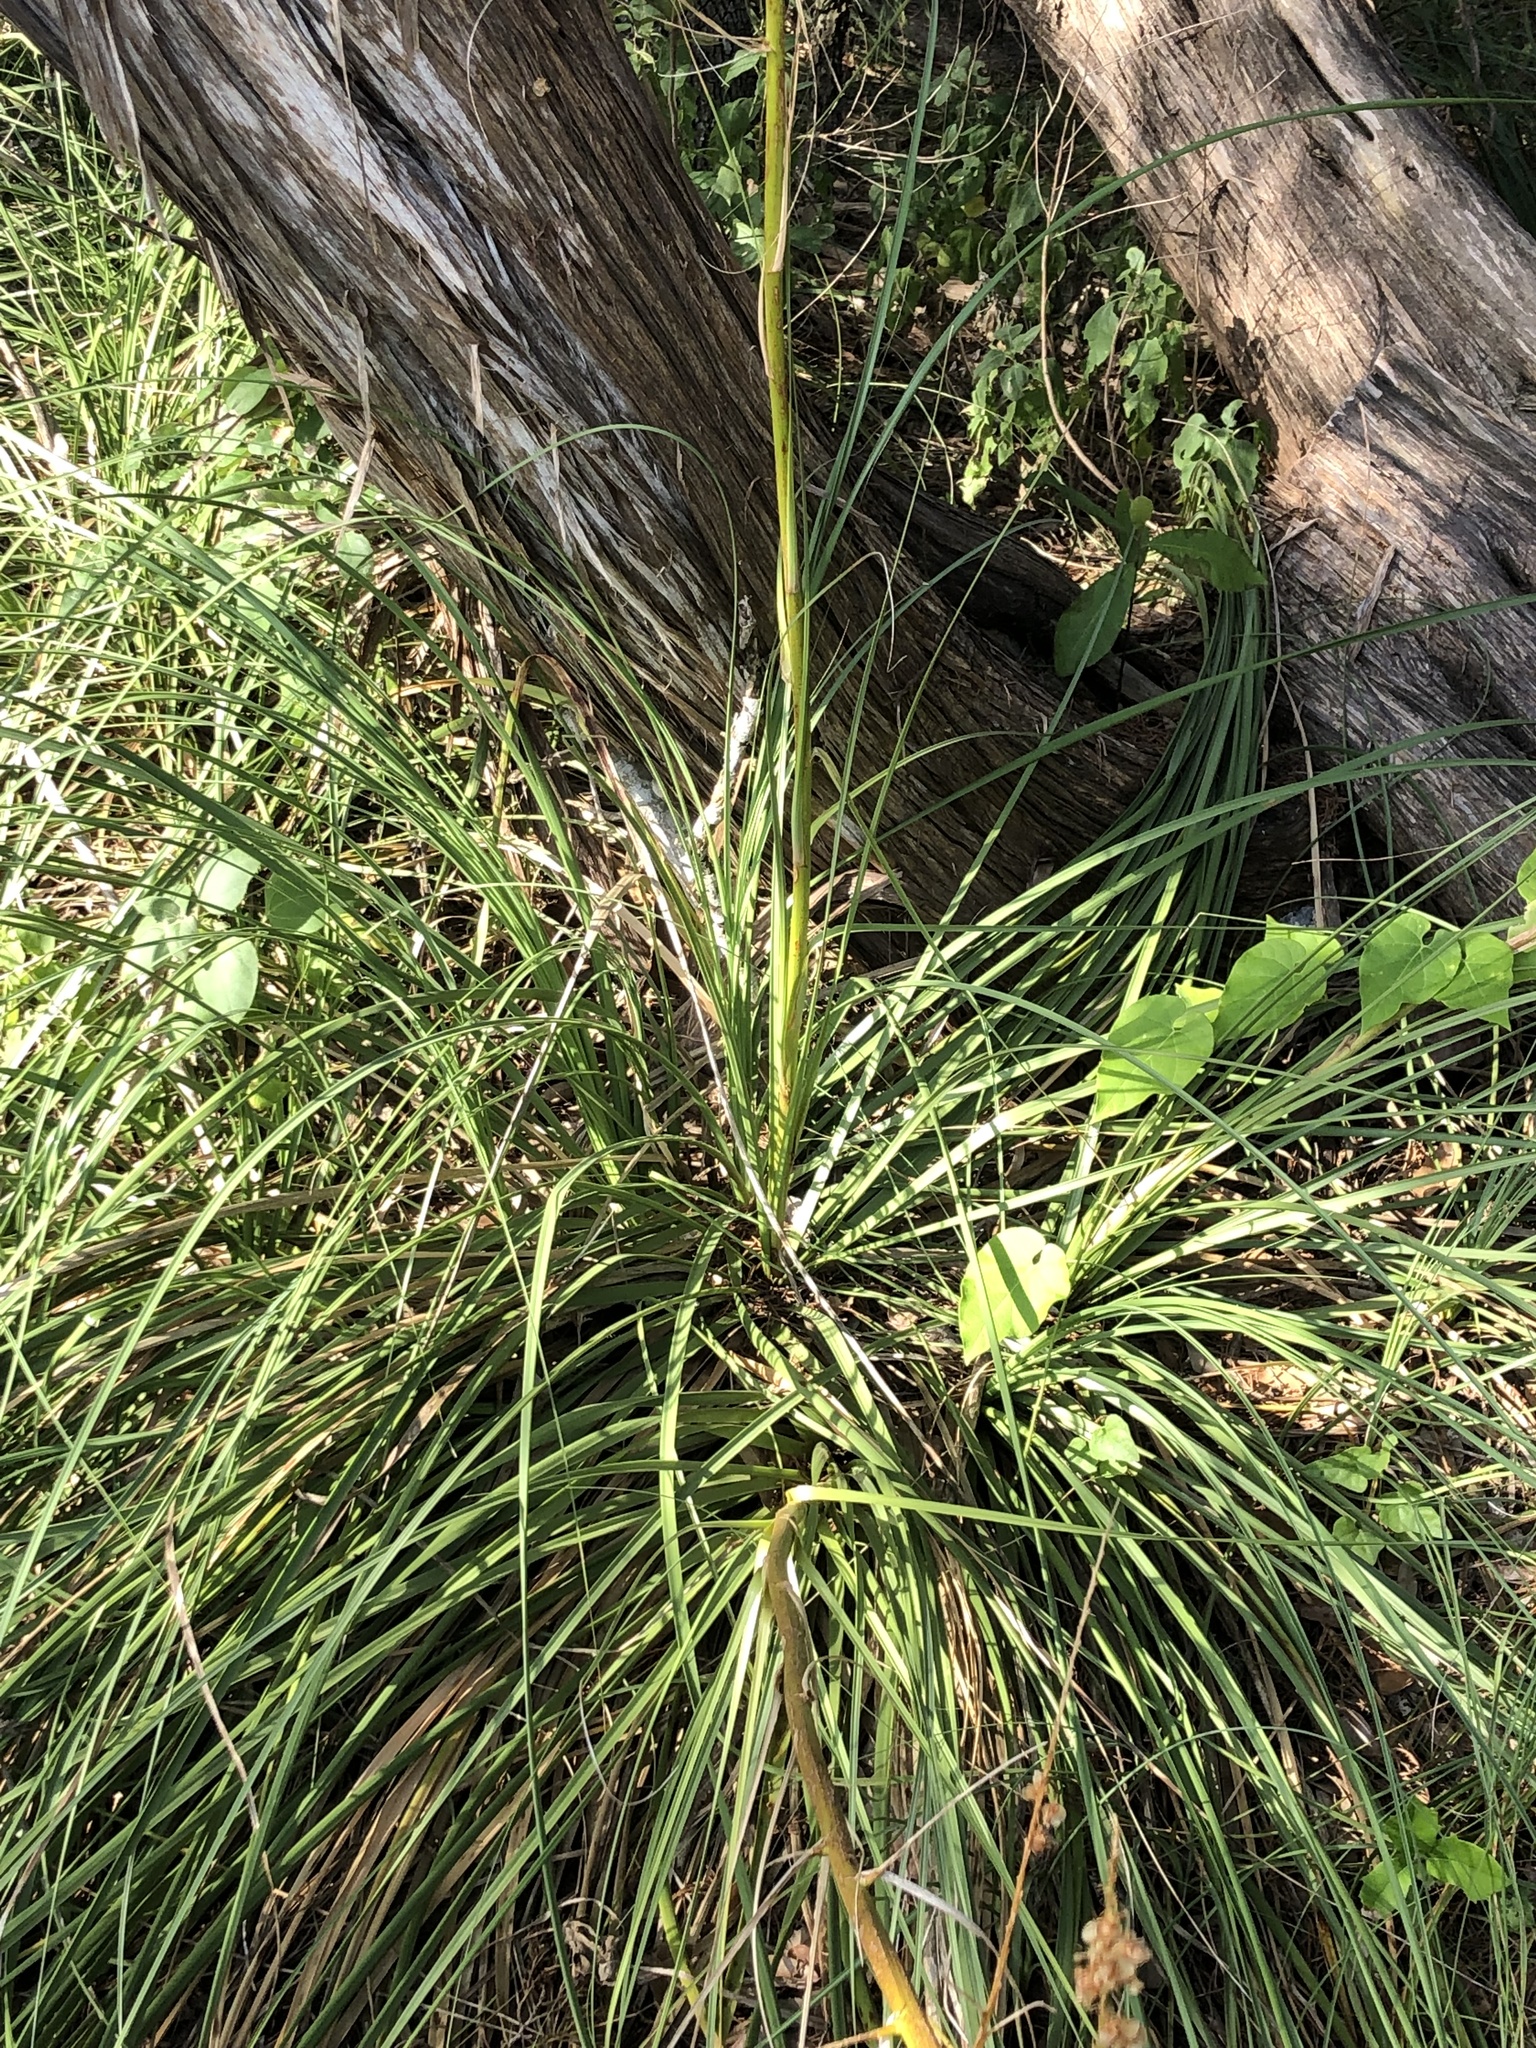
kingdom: Plantae
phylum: Tracheophyta
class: Liliopsida
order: Asparagales
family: Asparagaceae
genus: Nolina
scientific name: Nolina lindheimeriana
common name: Lindheimer's bear-grass
